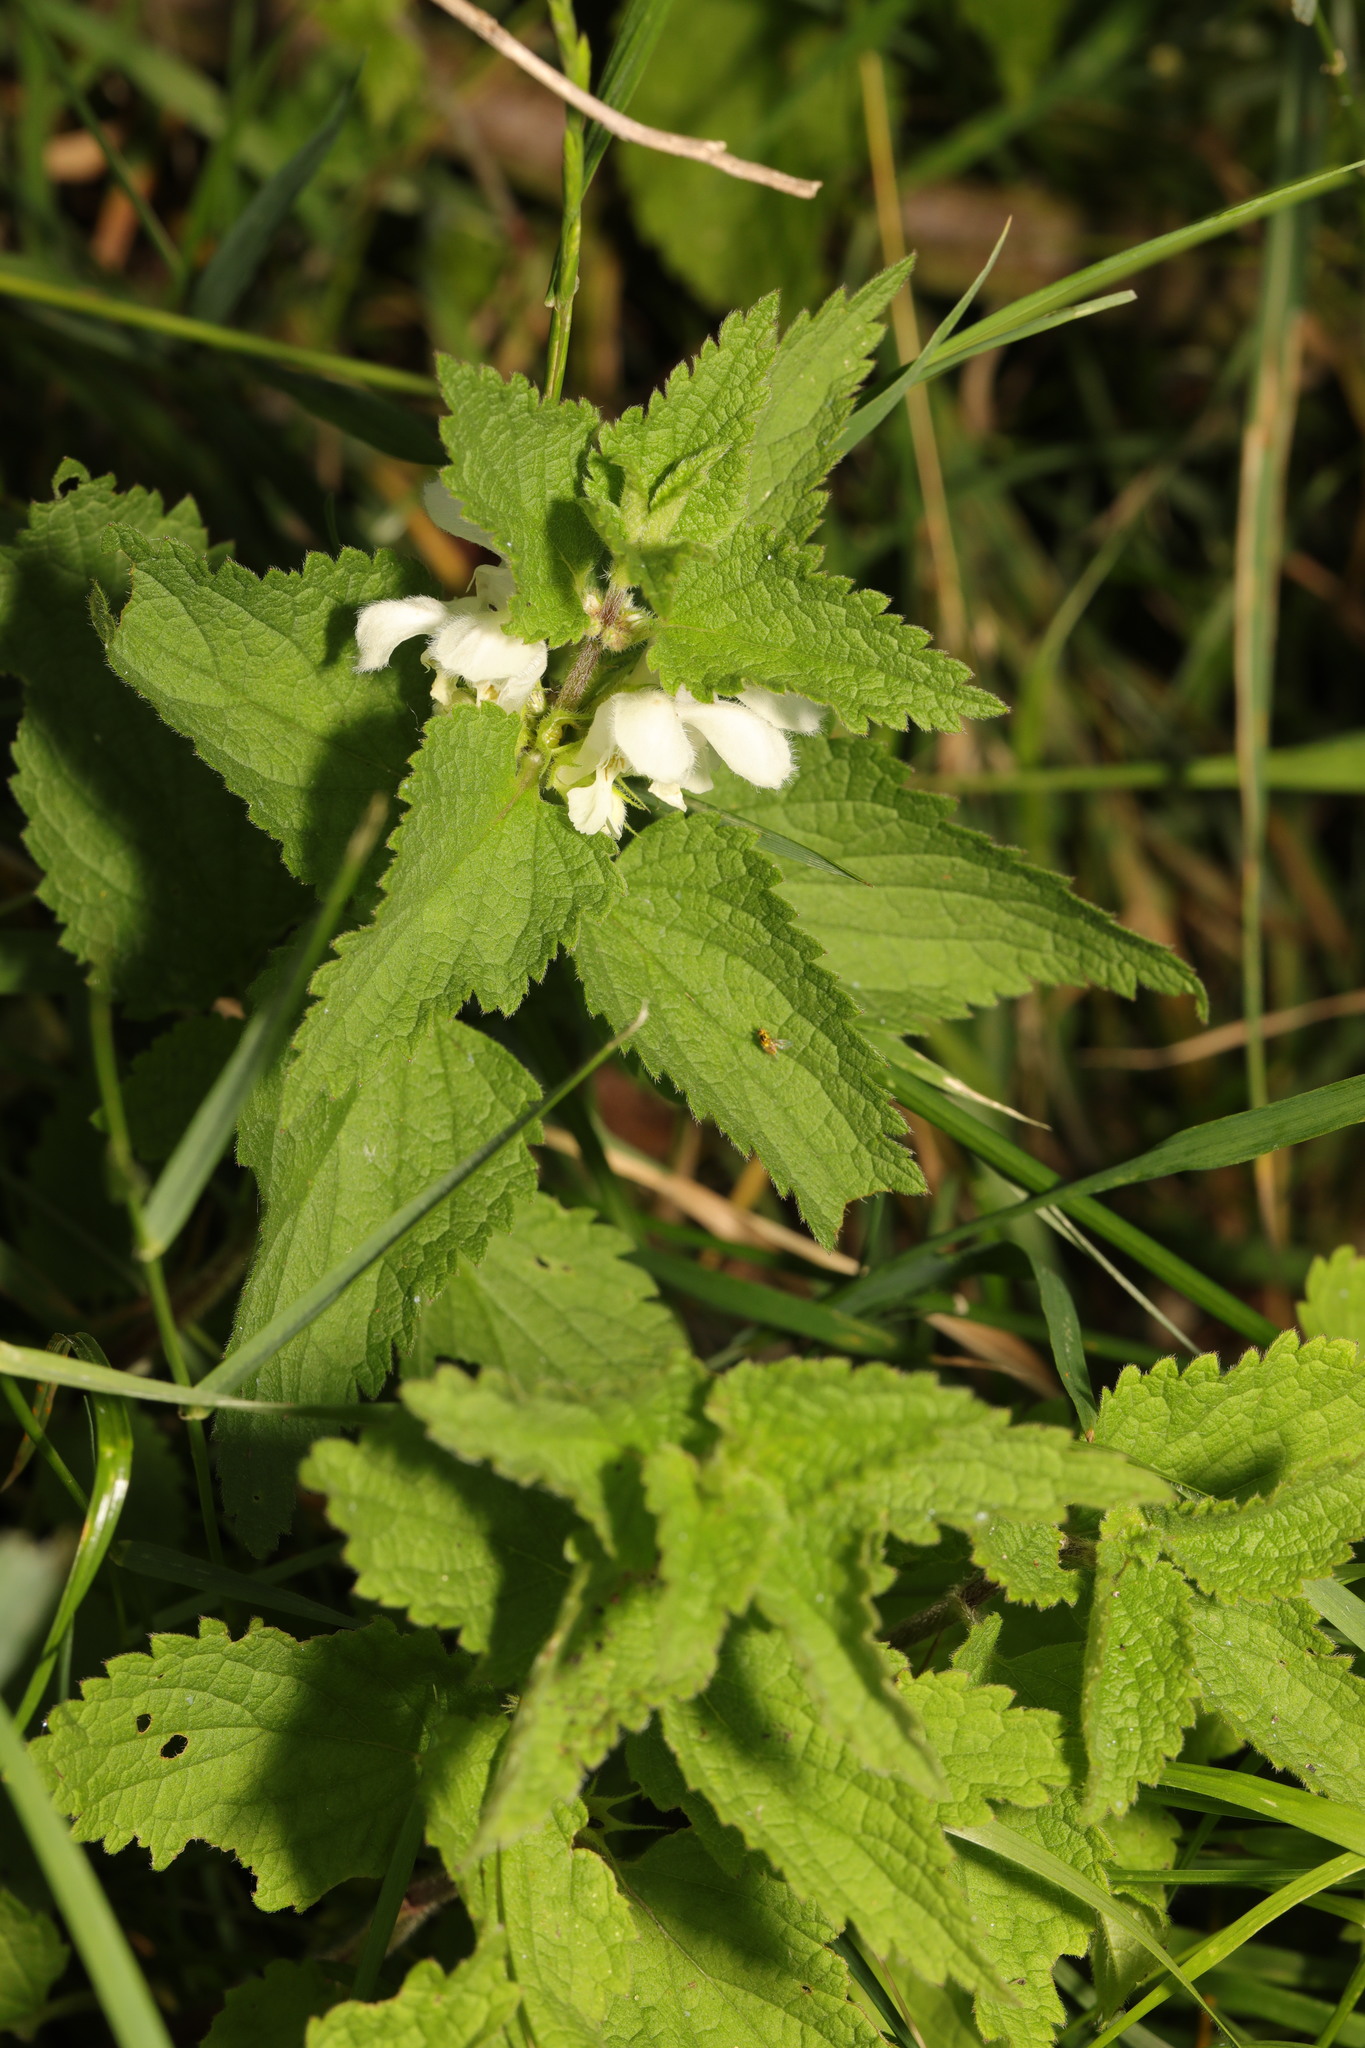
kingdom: Plantae
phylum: Tracheophyta
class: Magnoliopsida
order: Lamiales
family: Lamiaceae
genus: Lamium
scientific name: Lamium album
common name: White dead-nettle
